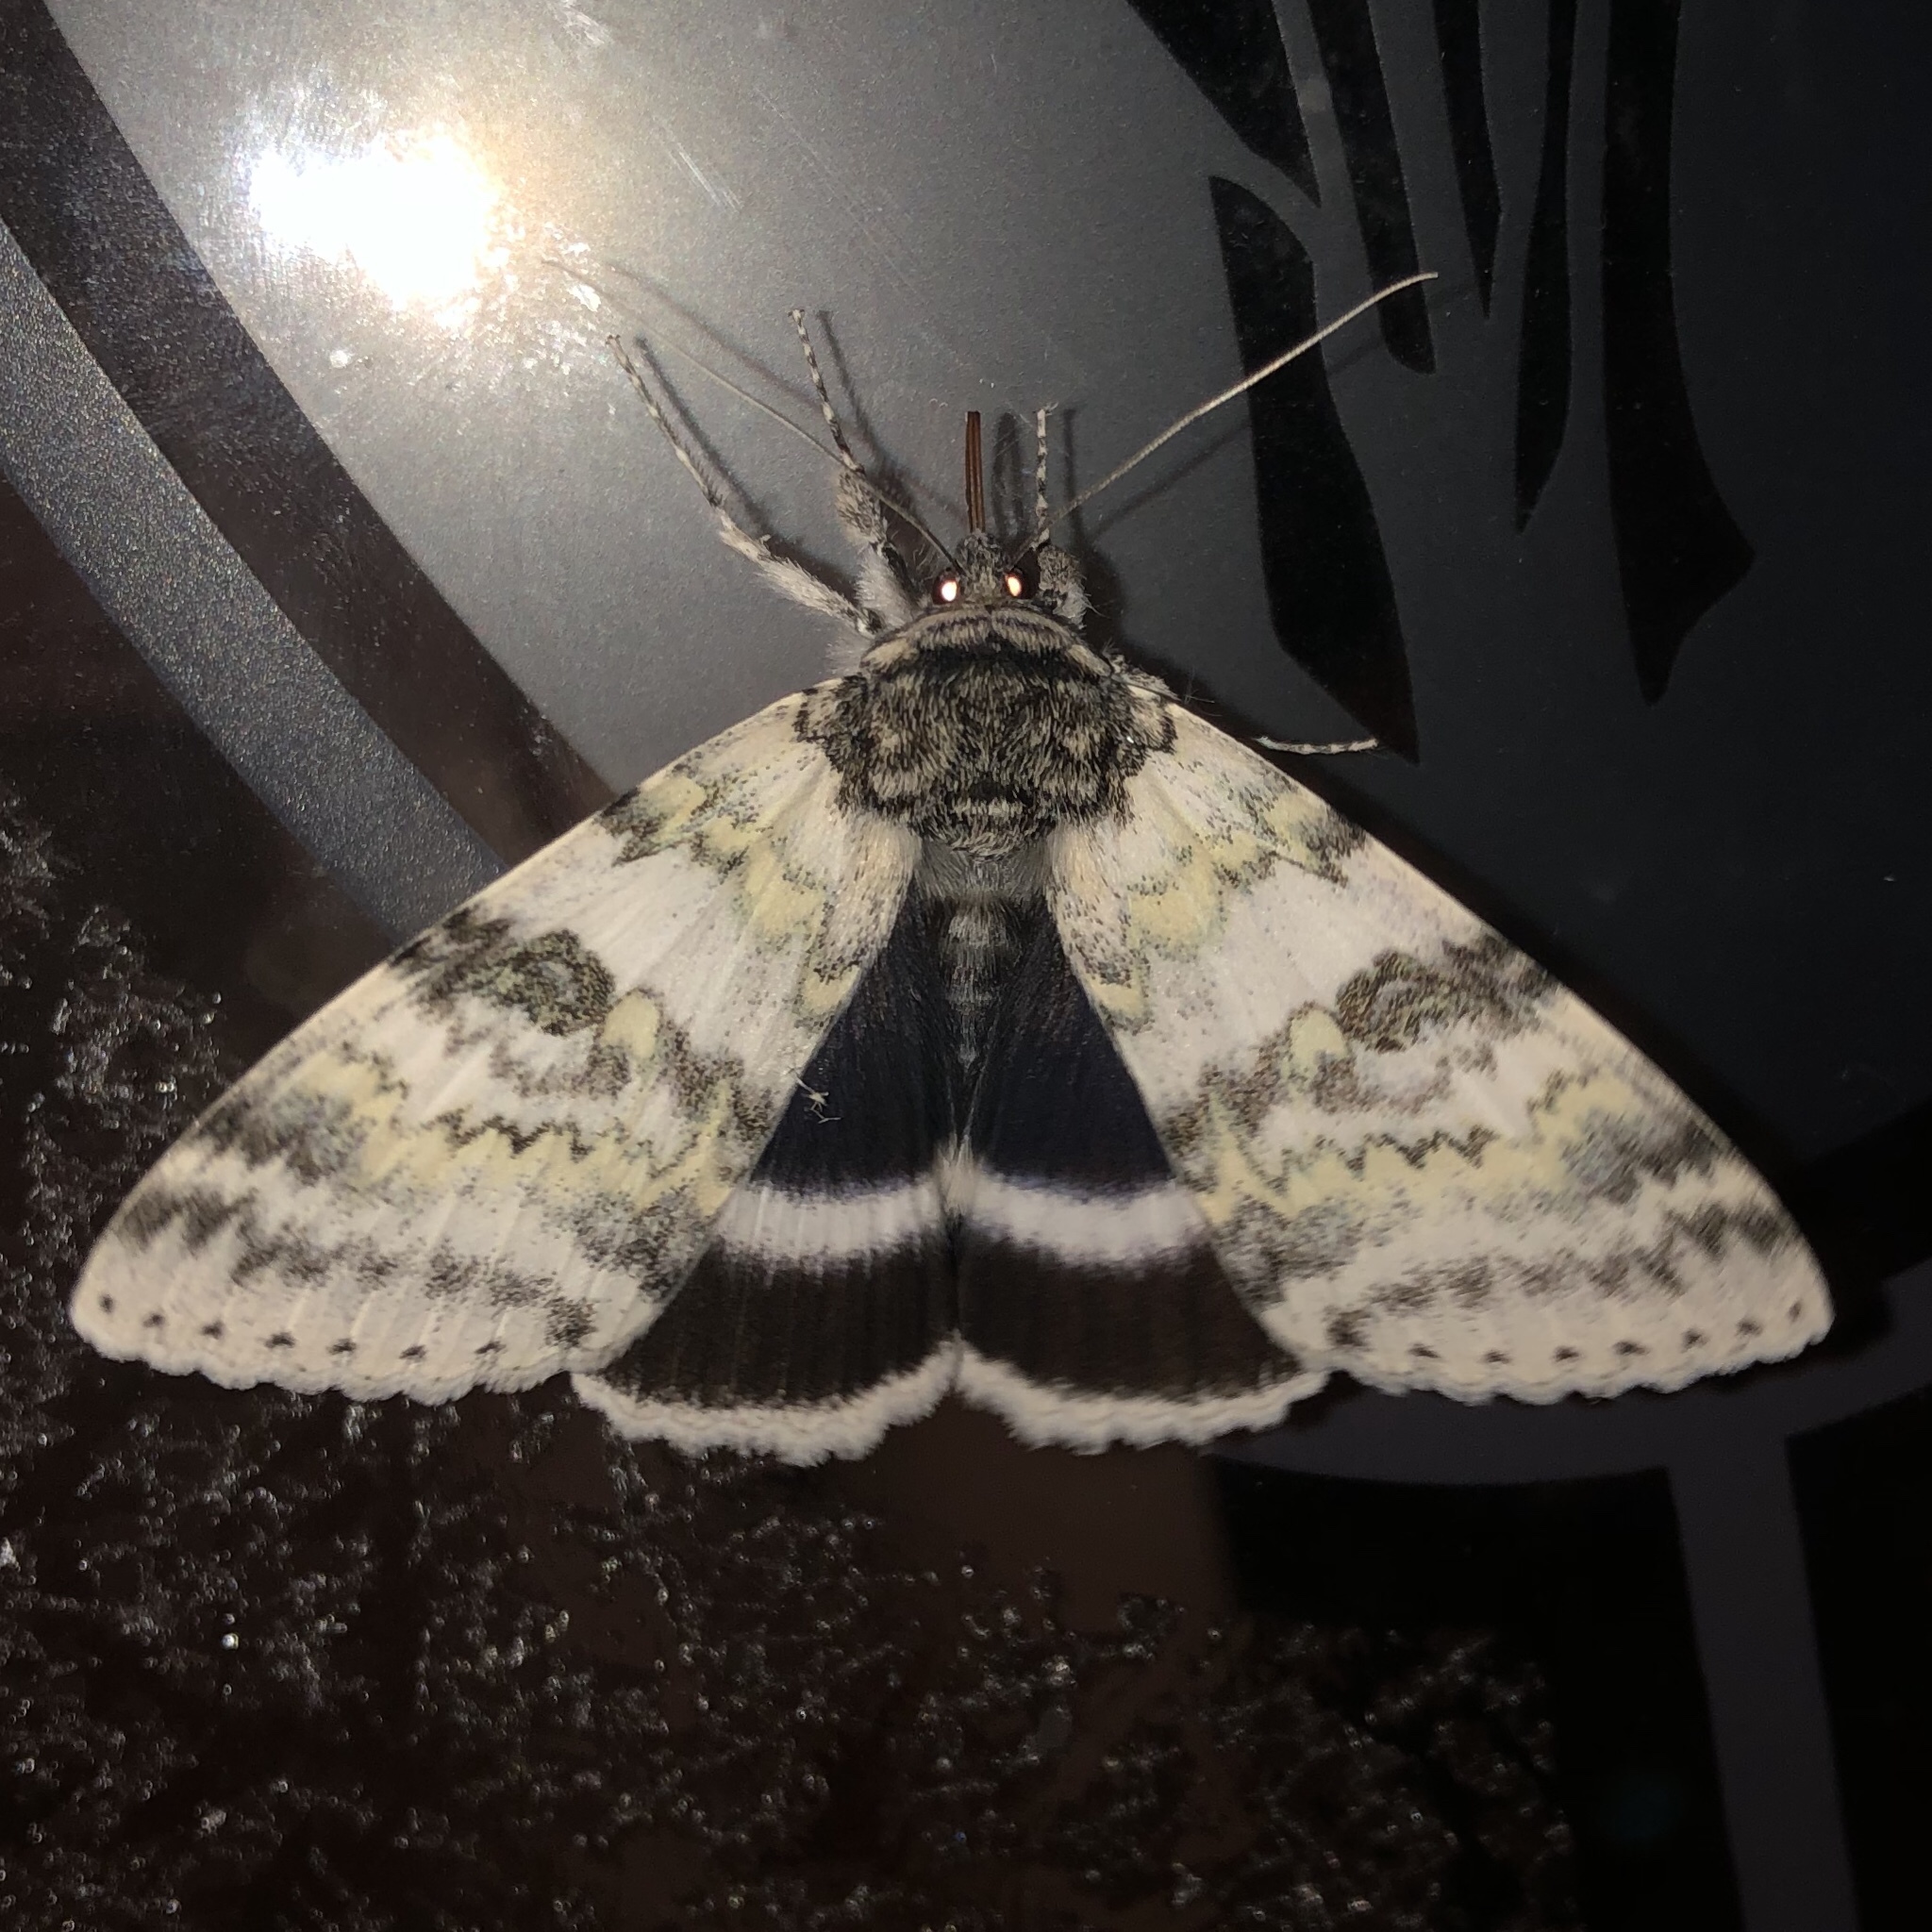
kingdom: Animalia
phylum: Arthropoda
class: Insecta
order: Lepidoptera
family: Erebidae
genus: Catocala
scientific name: Catocala relicta
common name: White underwing
